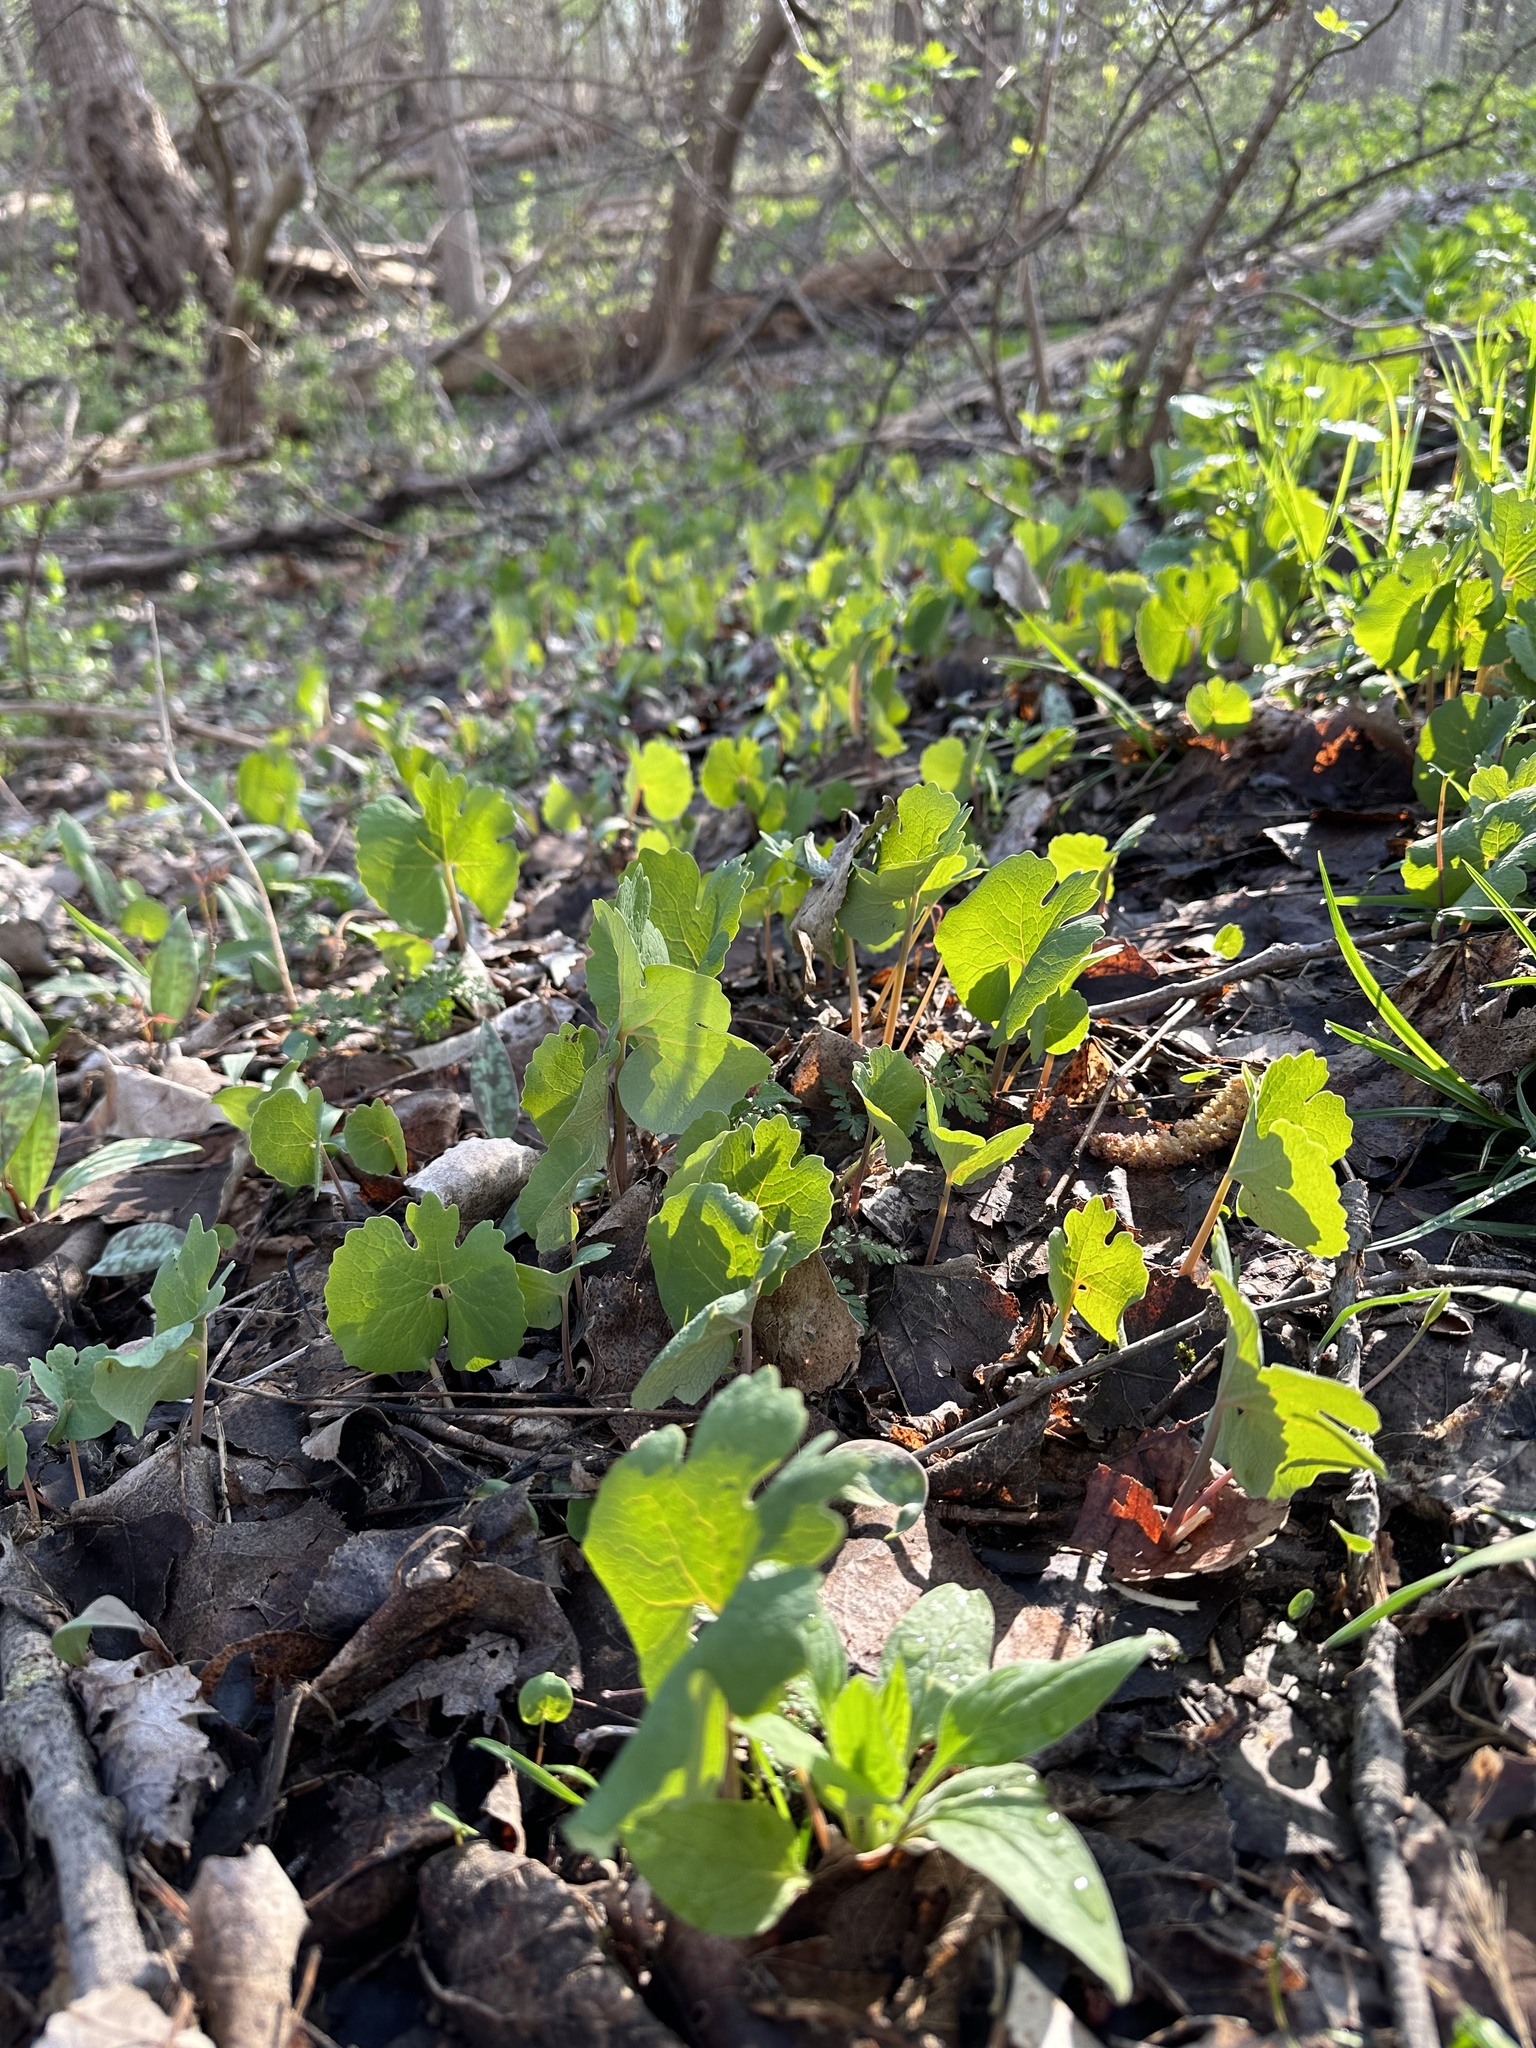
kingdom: Plantae
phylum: Tracheophyta
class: Magnoliopsida
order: Ranunculales
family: Papaveraceae
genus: Sanguinaria
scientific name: Sanguinaria canadensis
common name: Bloodroot
